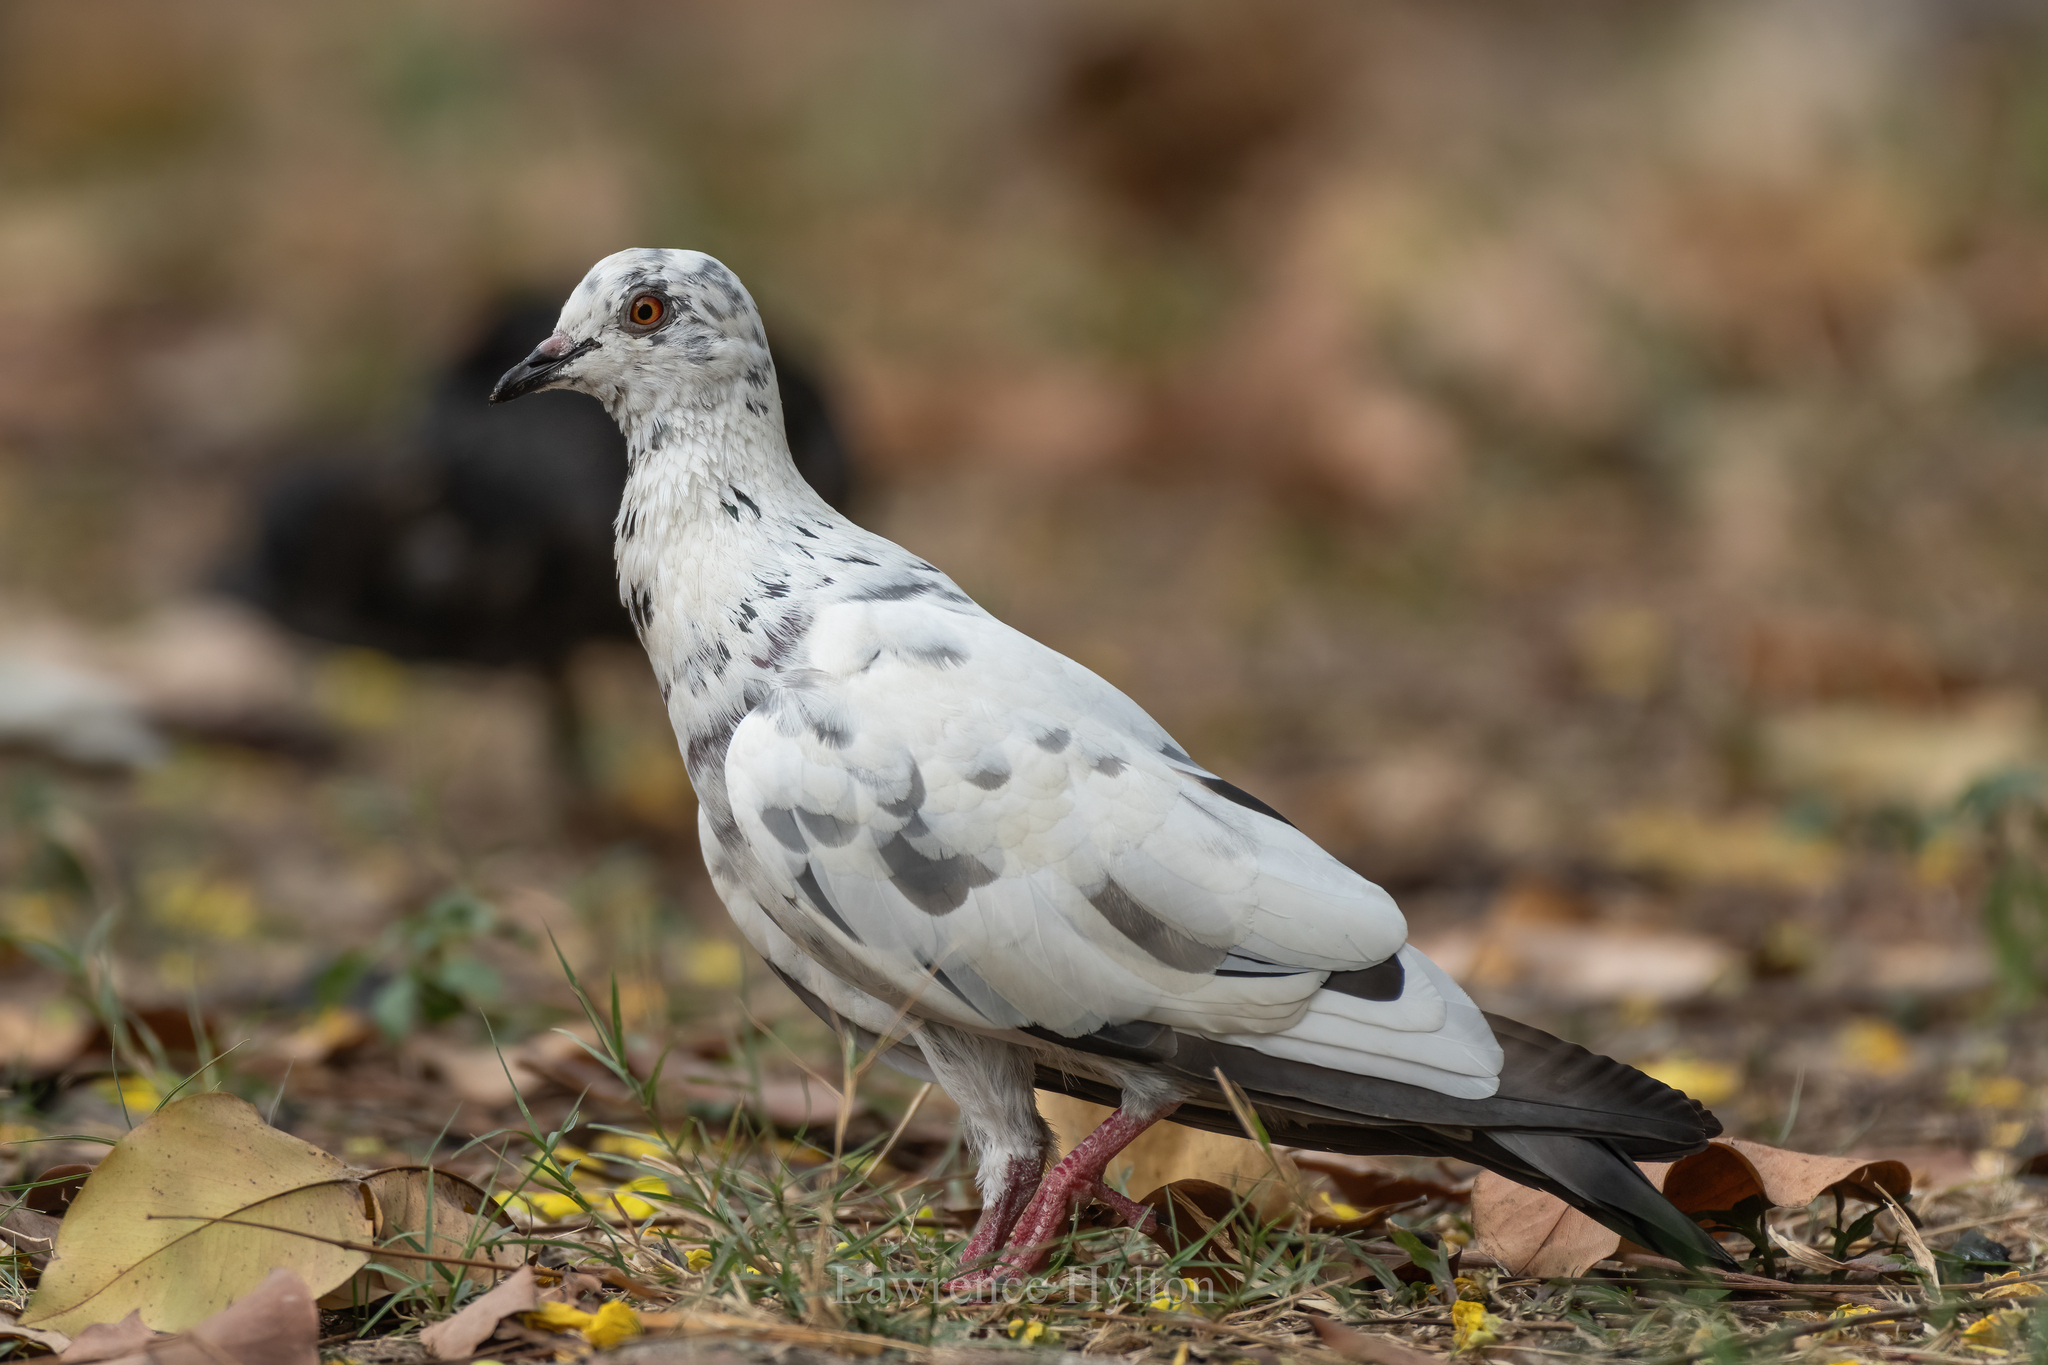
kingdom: Animalia
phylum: Chordata
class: Aves
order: Columbiformes
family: Columbidae
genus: Columba
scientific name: Columba livia
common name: Rock pigeon
